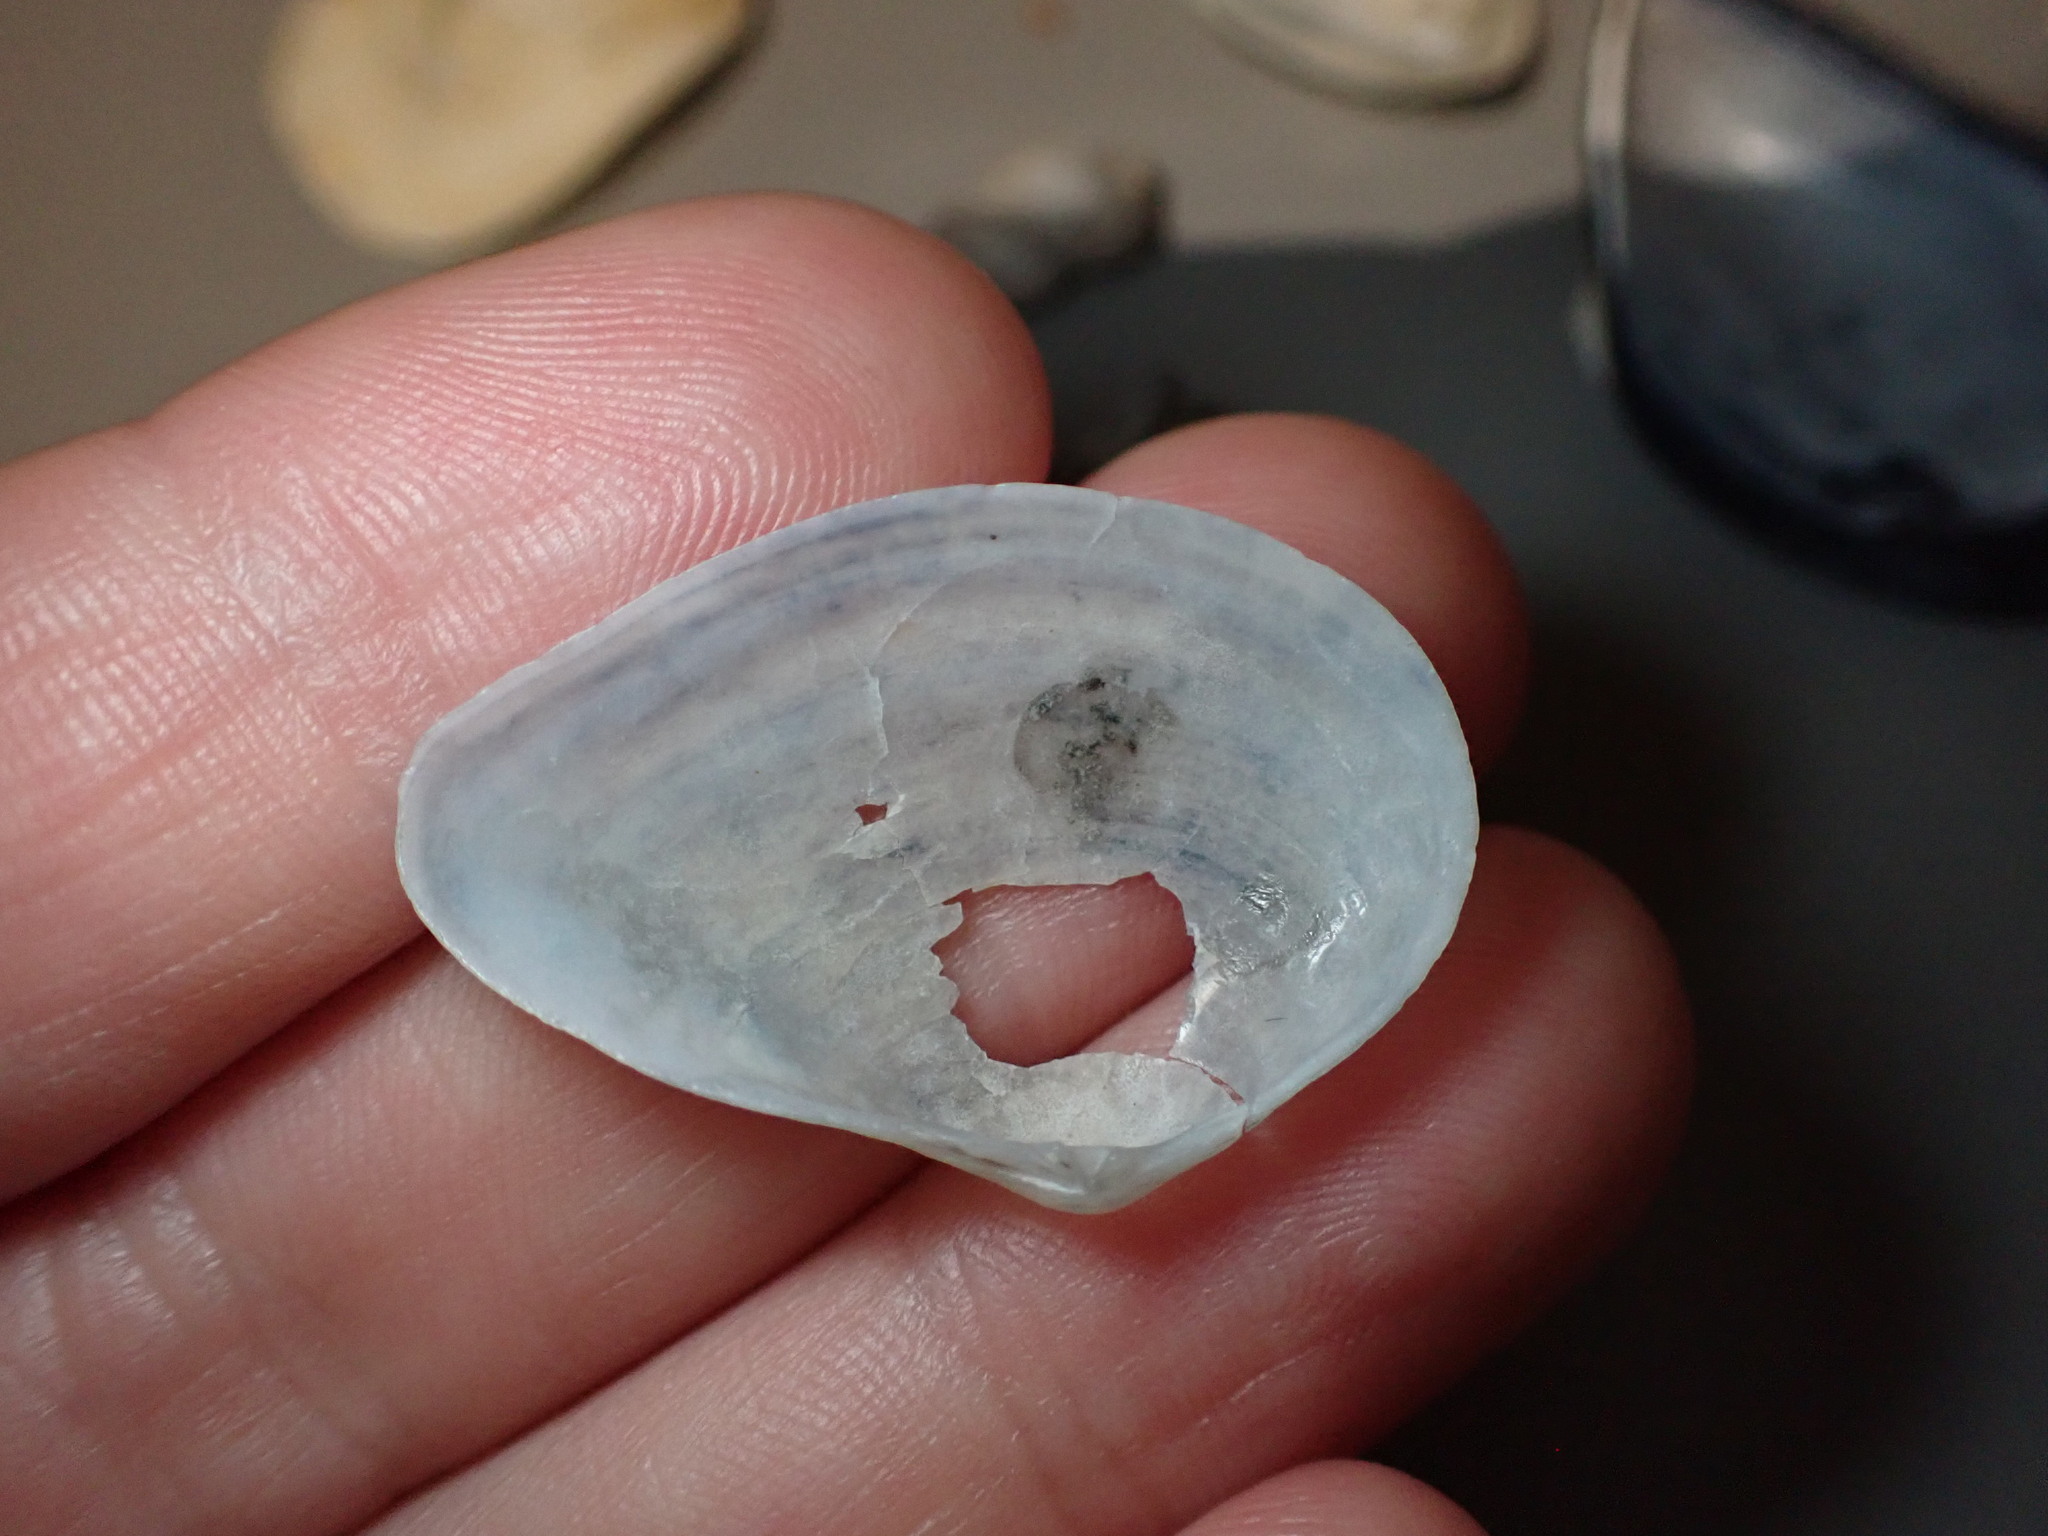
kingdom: Animalia
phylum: Mollusca
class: Bivalvia
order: Cardiida
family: Tellinidae
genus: Gastrana
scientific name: Gastrana fragilis
